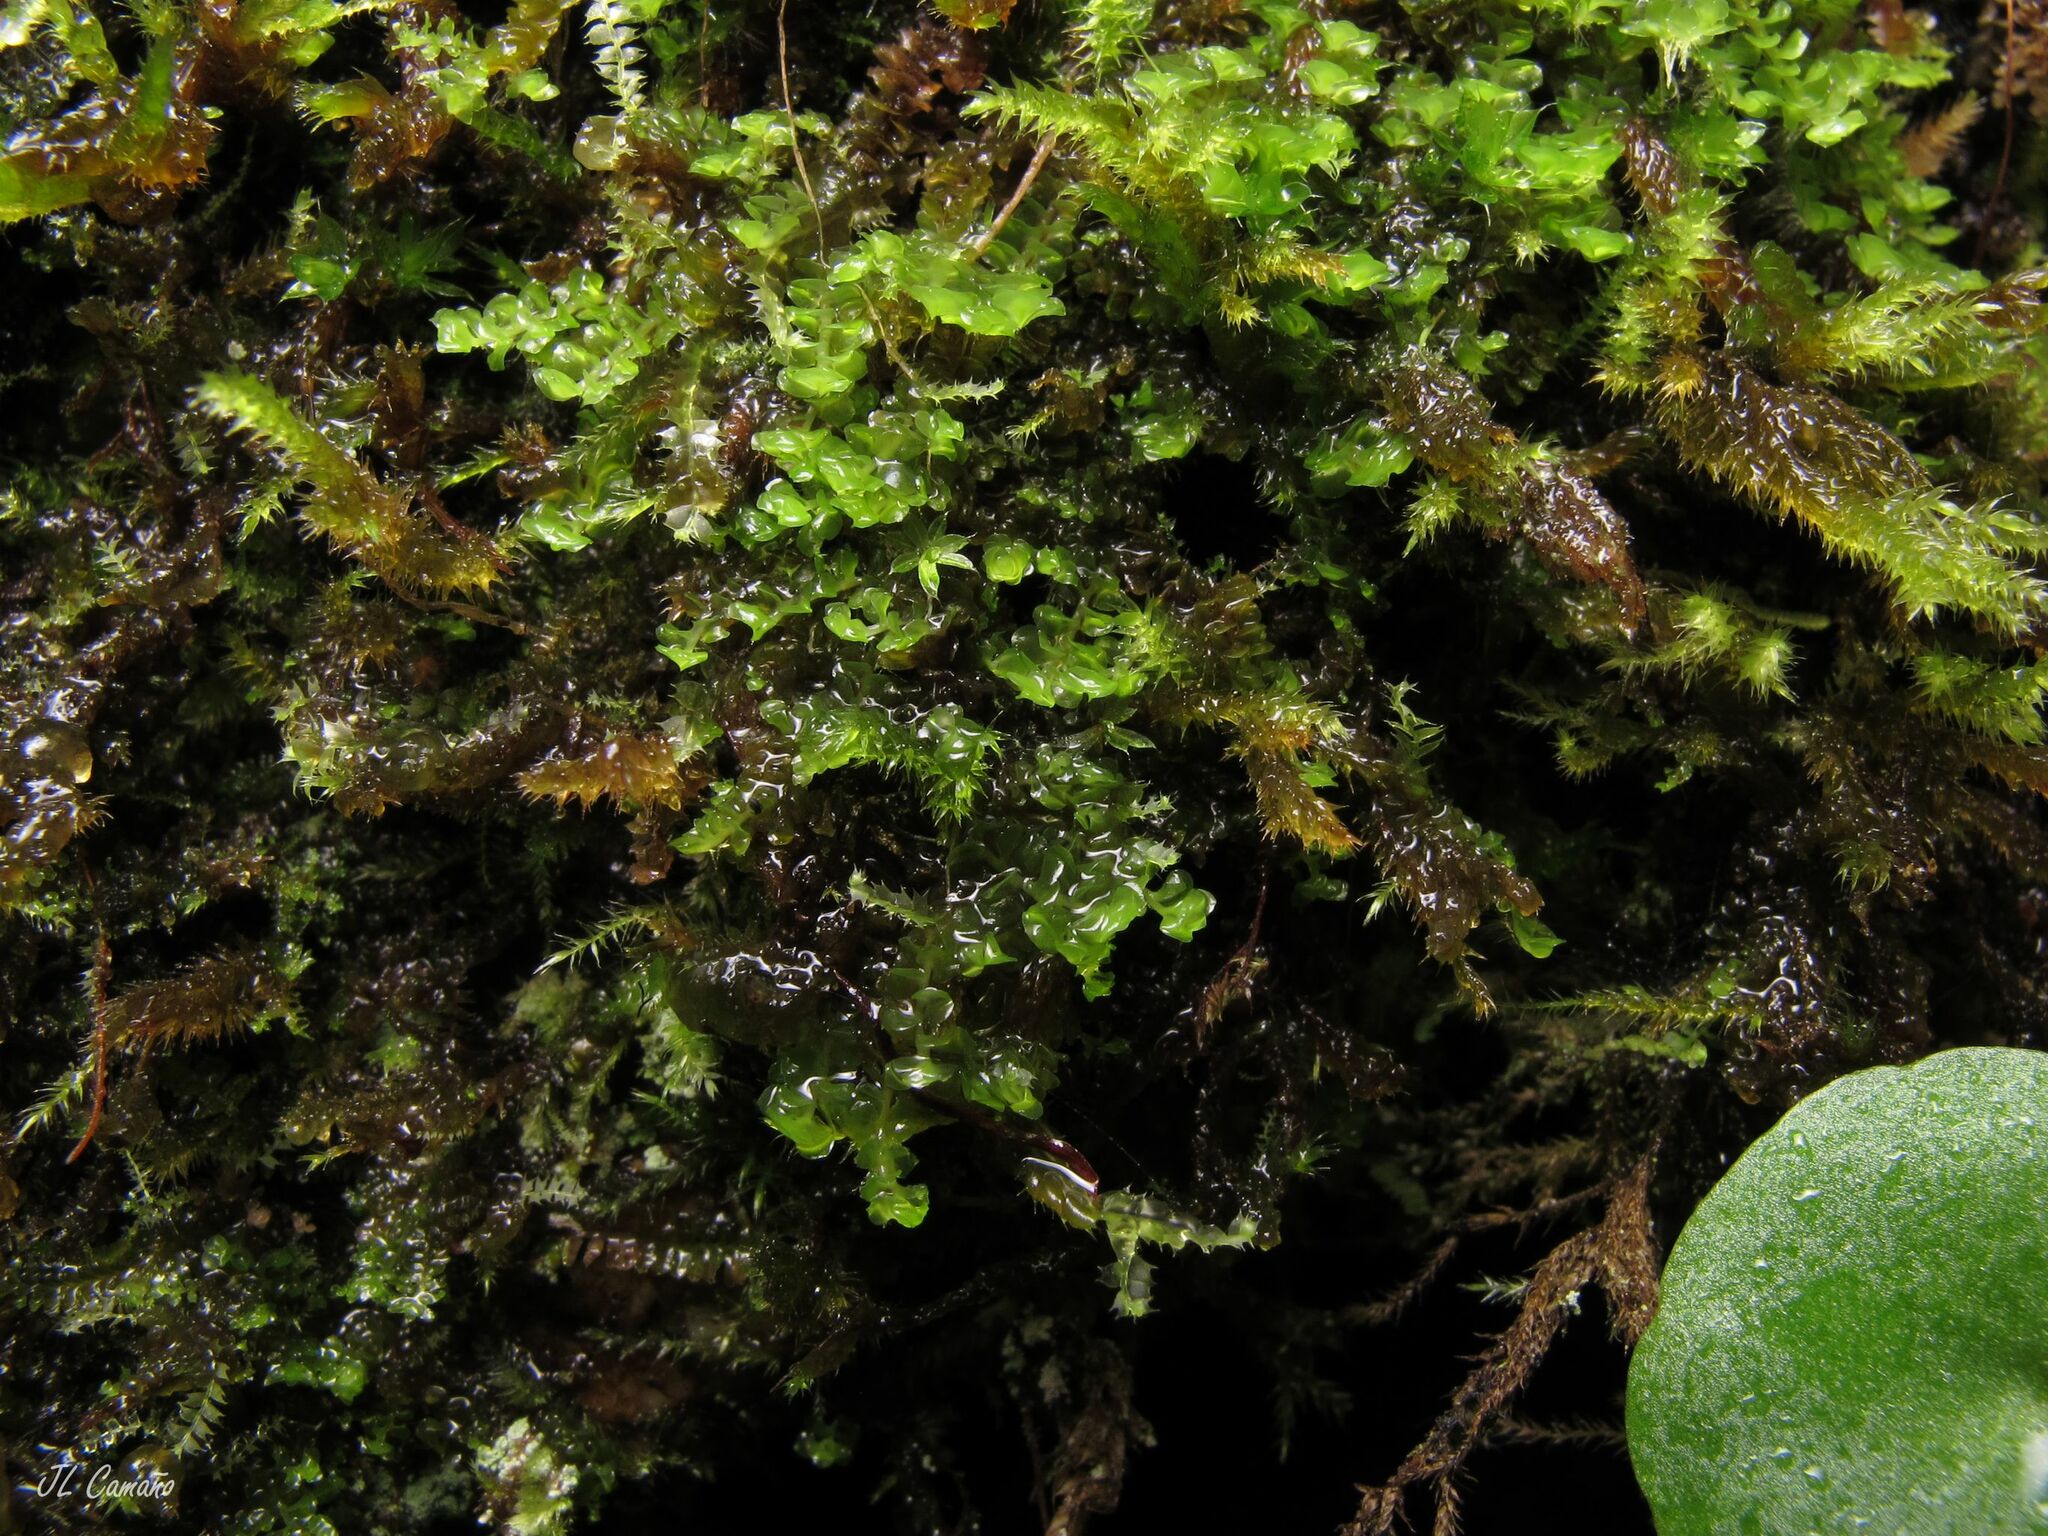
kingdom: Plantae
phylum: Marchantiophyta
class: Jungermanniopsida
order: Jungermanniales
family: Scapaniaceae
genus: Scapania
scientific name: Scapania compacta
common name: Thick-set earwort
